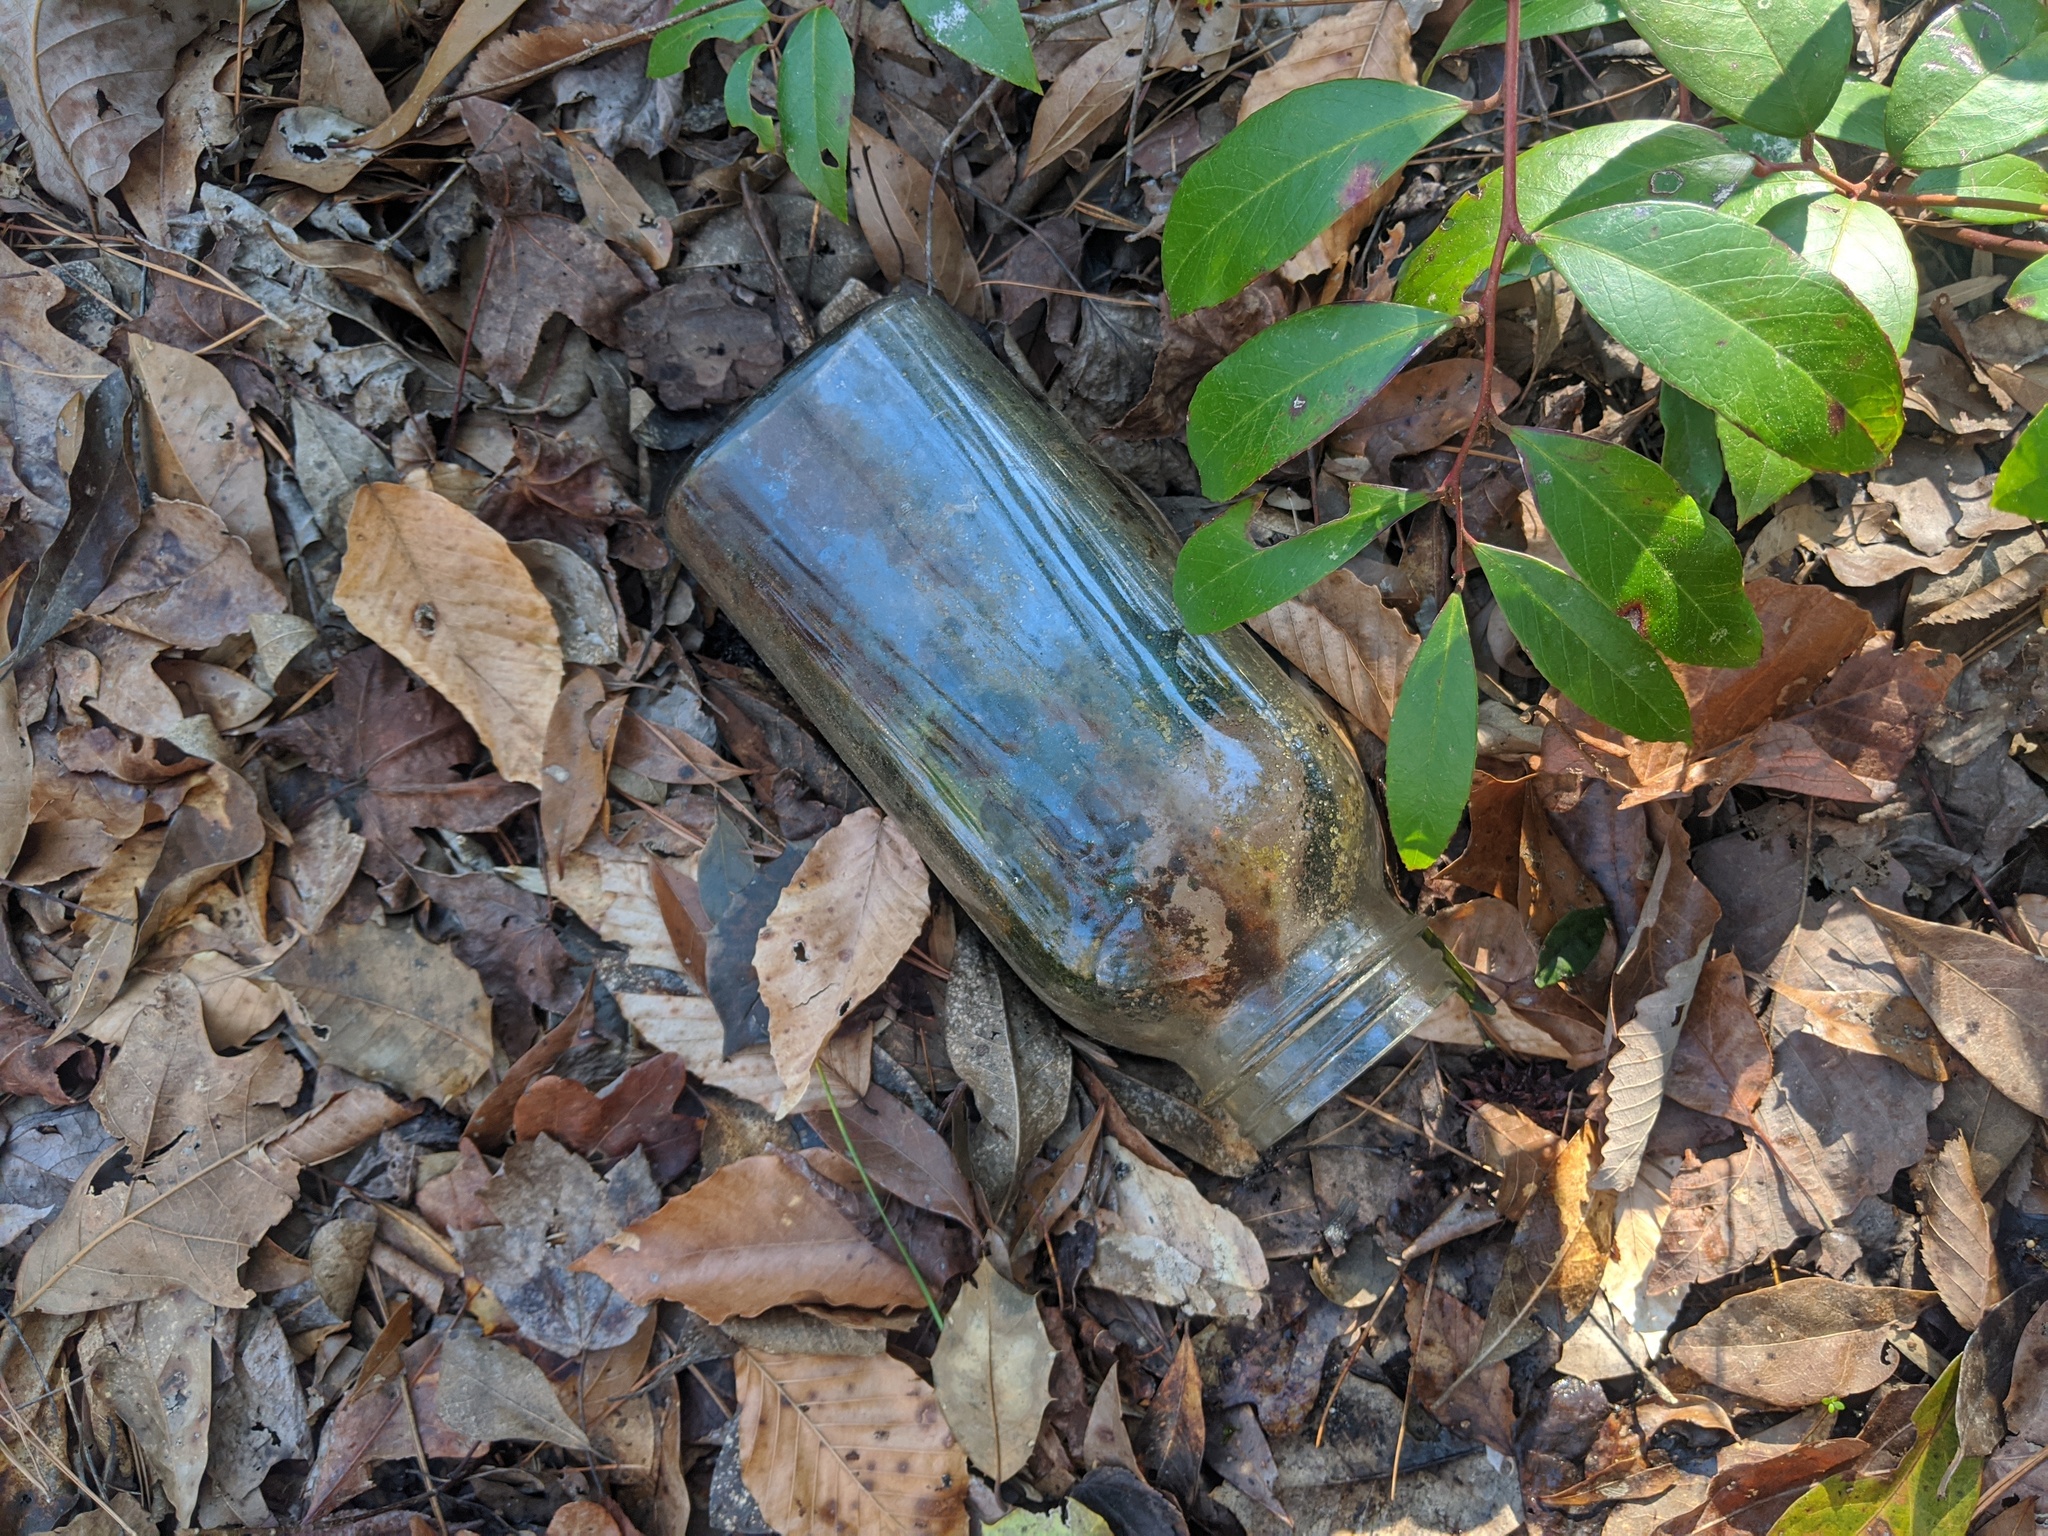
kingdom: Plantae
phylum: Bryophyta
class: Bryopsida
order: Funariales
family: Funariaceae
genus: Physcomitrium
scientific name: Physcomitrium pyriforme
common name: Common bladder-moss
